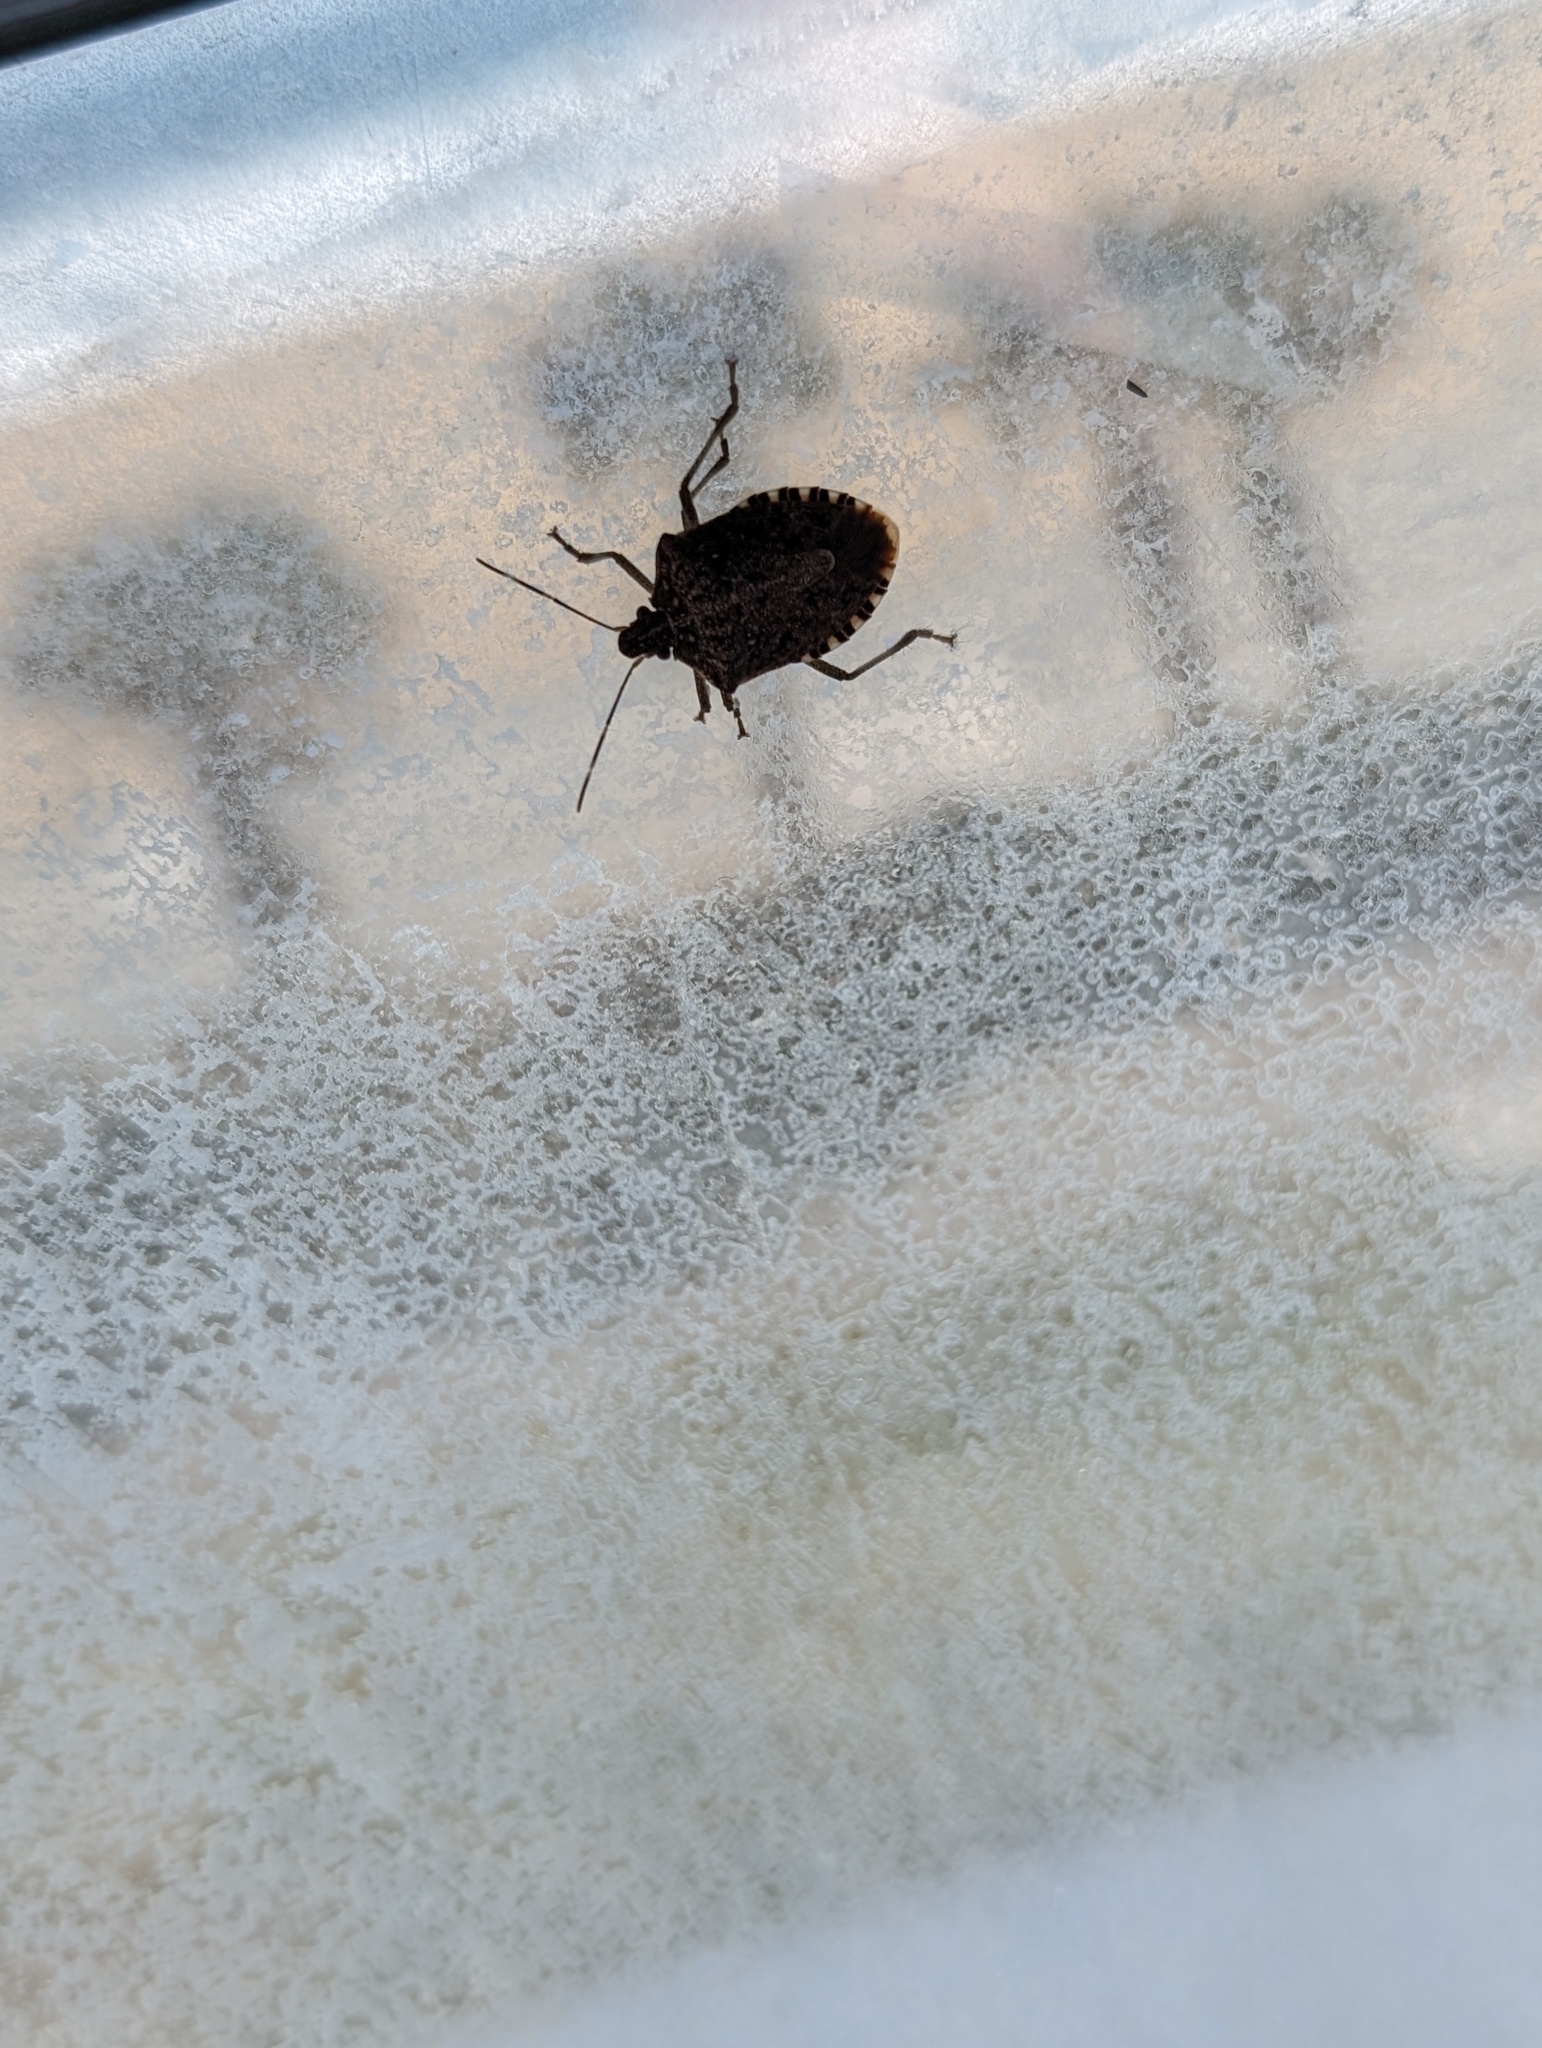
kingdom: Animalia
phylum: Arthropoda
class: Insecta
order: Hemiptera
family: Pentatomidae
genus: Halyomorpha
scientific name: Halyomorpha halys
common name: Brown marmorated stink bug
